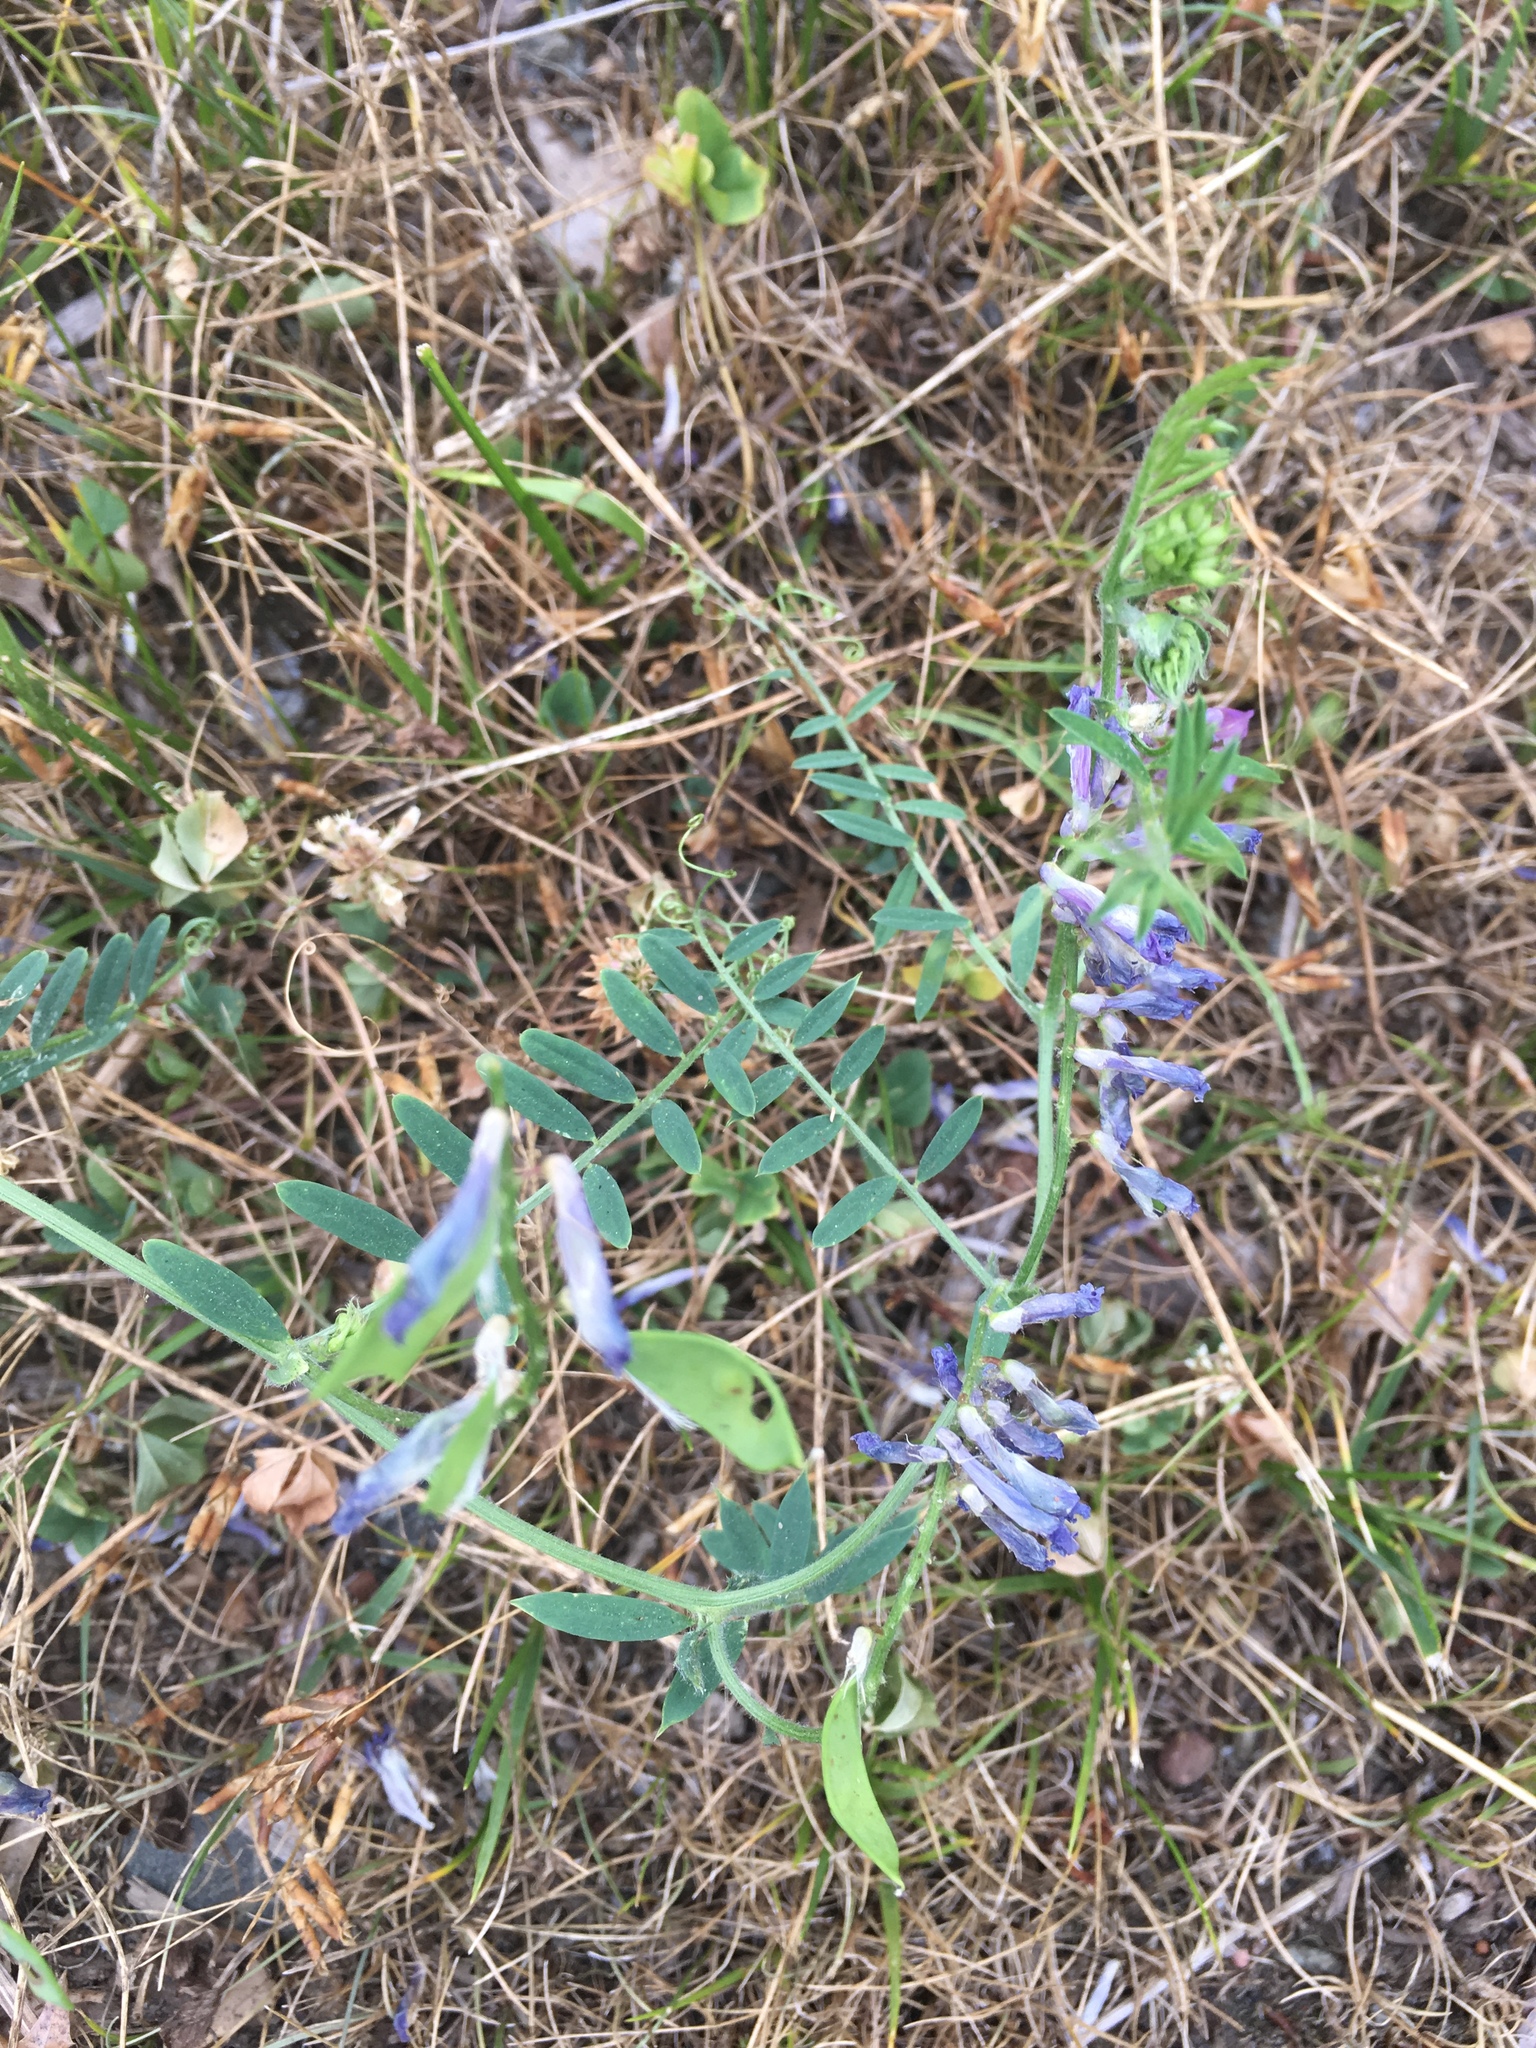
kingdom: Plantae
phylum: Tracheophyta
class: Magnoliopsida
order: Fabales
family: Fabaceae
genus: Vicia
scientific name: Vicia villosa
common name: Fodder vetch
